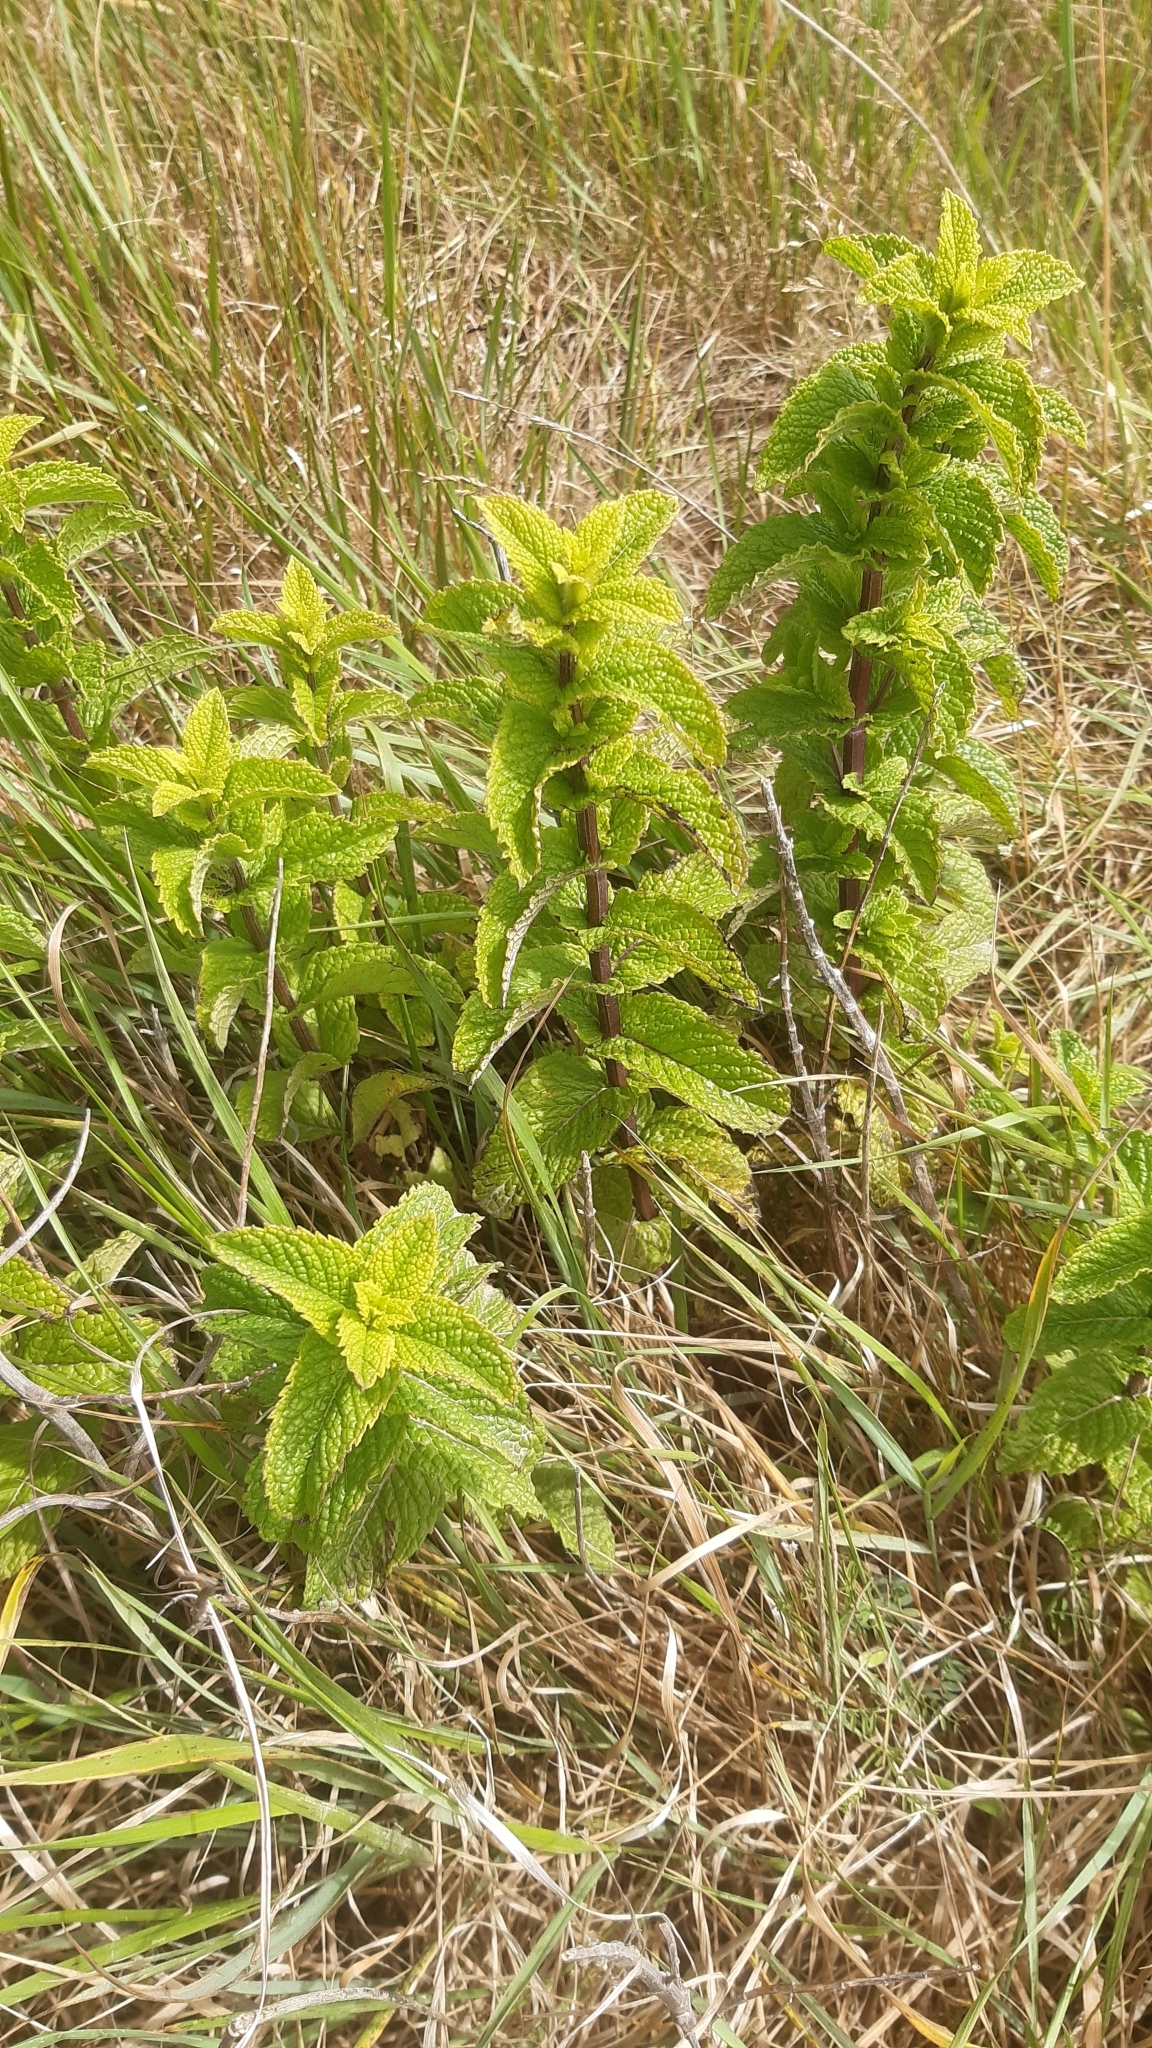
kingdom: Plantae
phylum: Tracheophyta
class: Magnoliopsida
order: Lamiales
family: Lamiaceae
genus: Mentha
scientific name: Mentha spicata
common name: Spearmint
